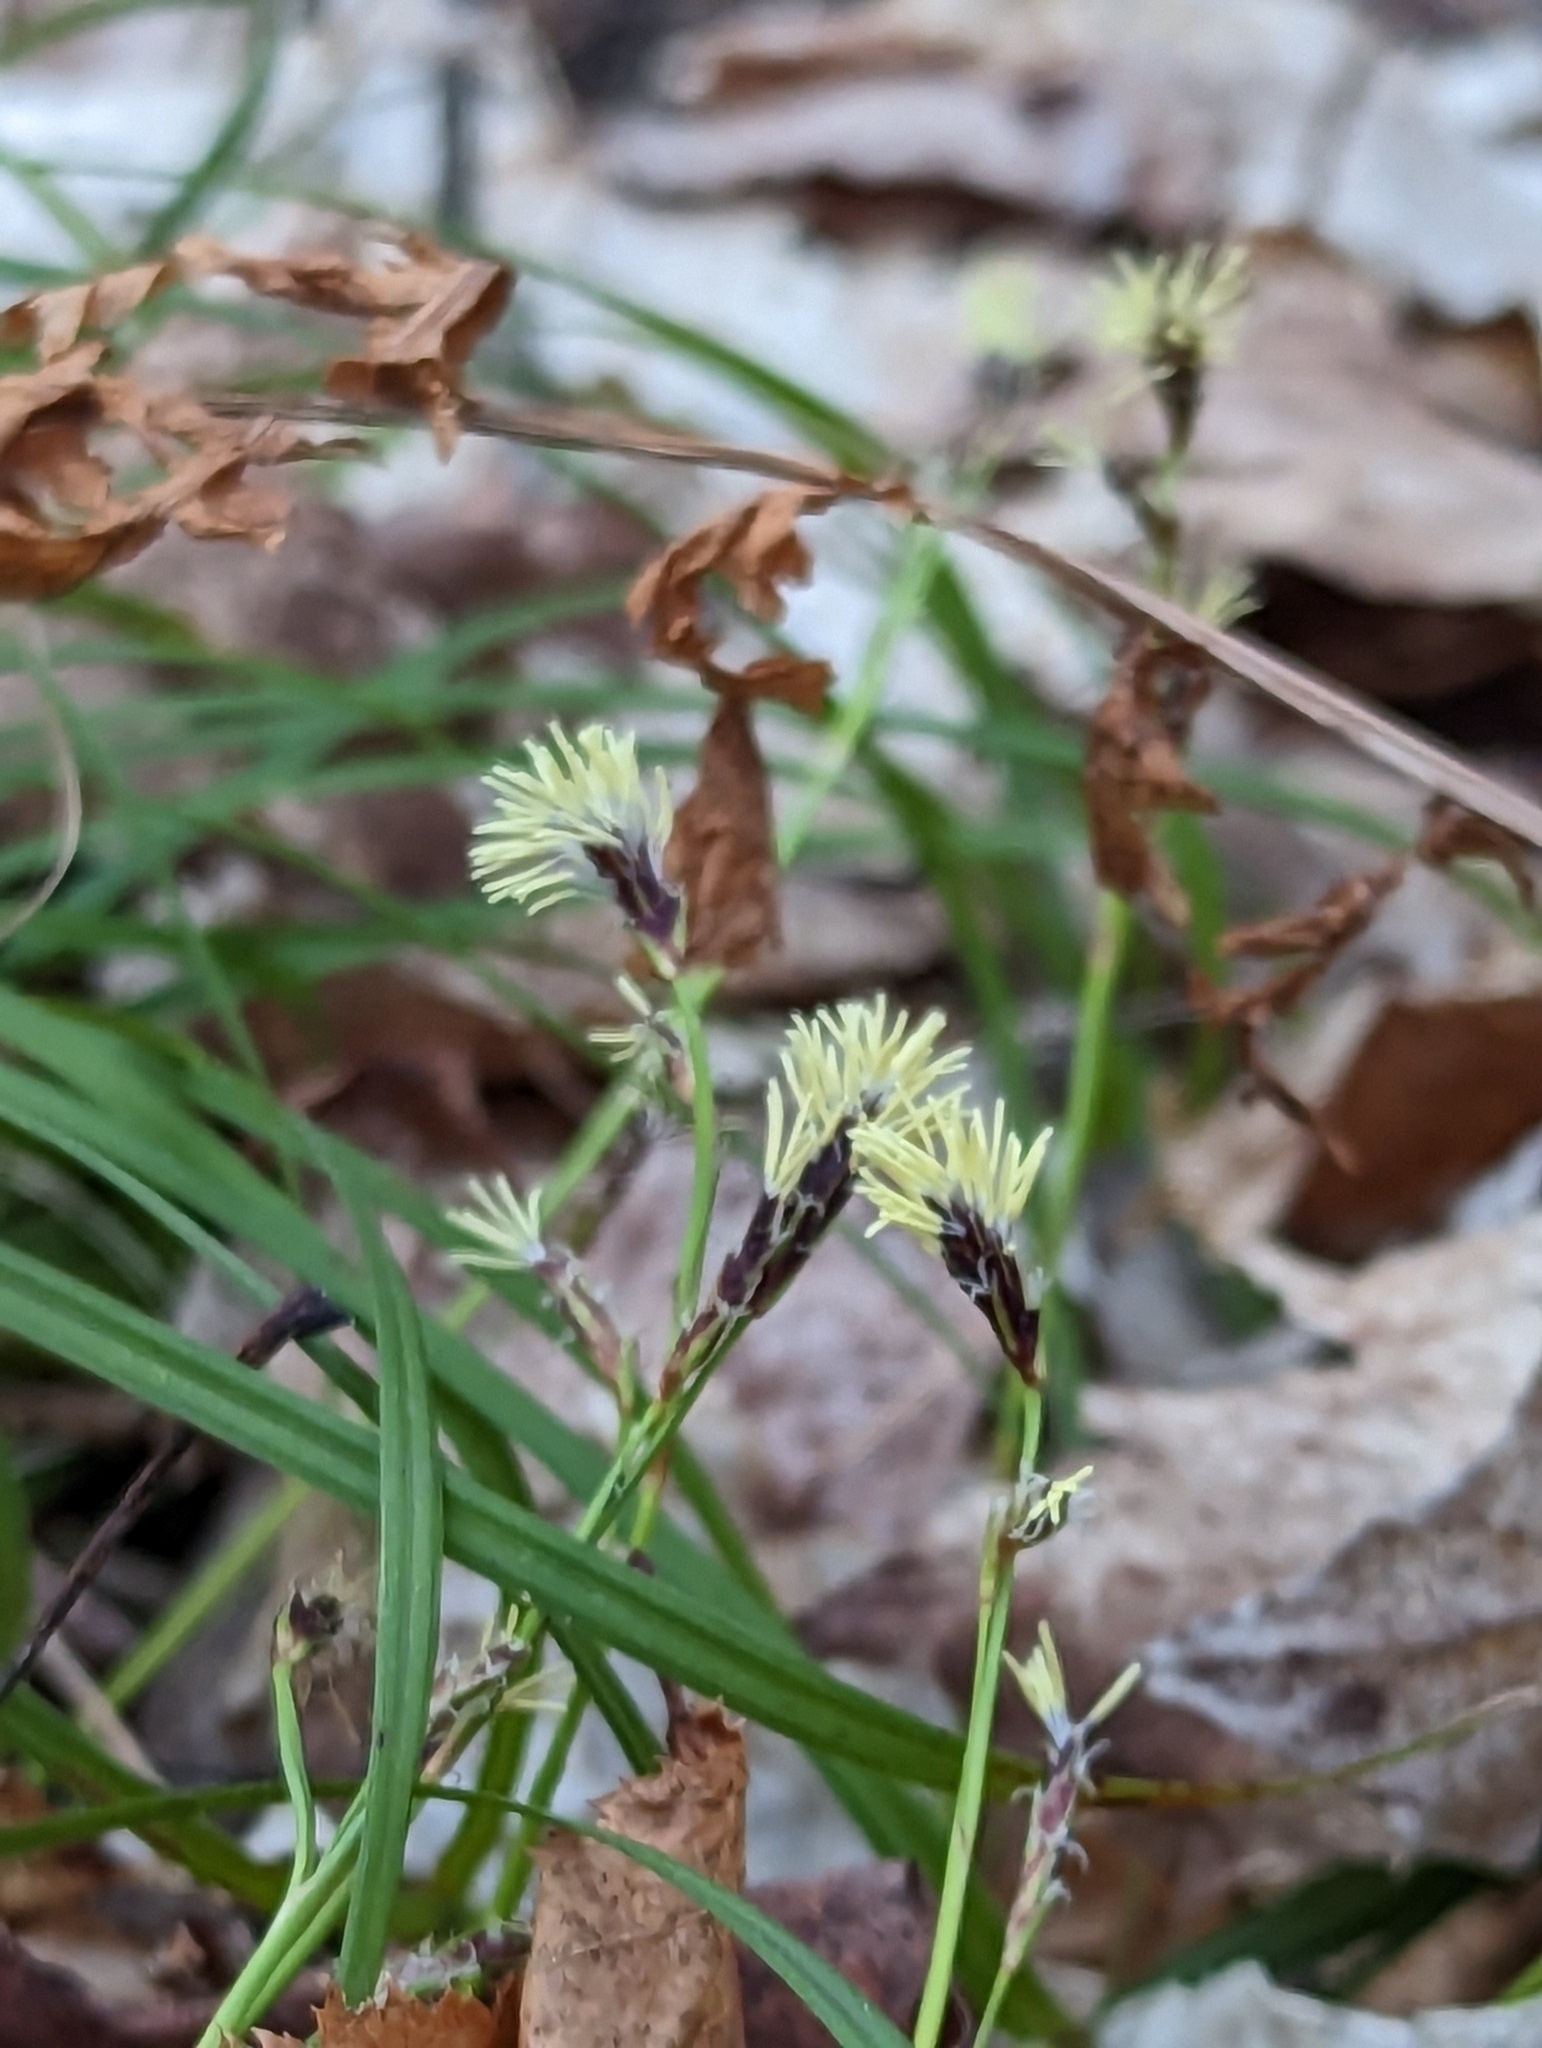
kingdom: Plantae
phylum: Tracheophyta
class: Liliopsida
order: Poales
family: Cyperaceae
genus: Carex
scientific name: Carex pedunculata
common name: Pedunculate sedge
